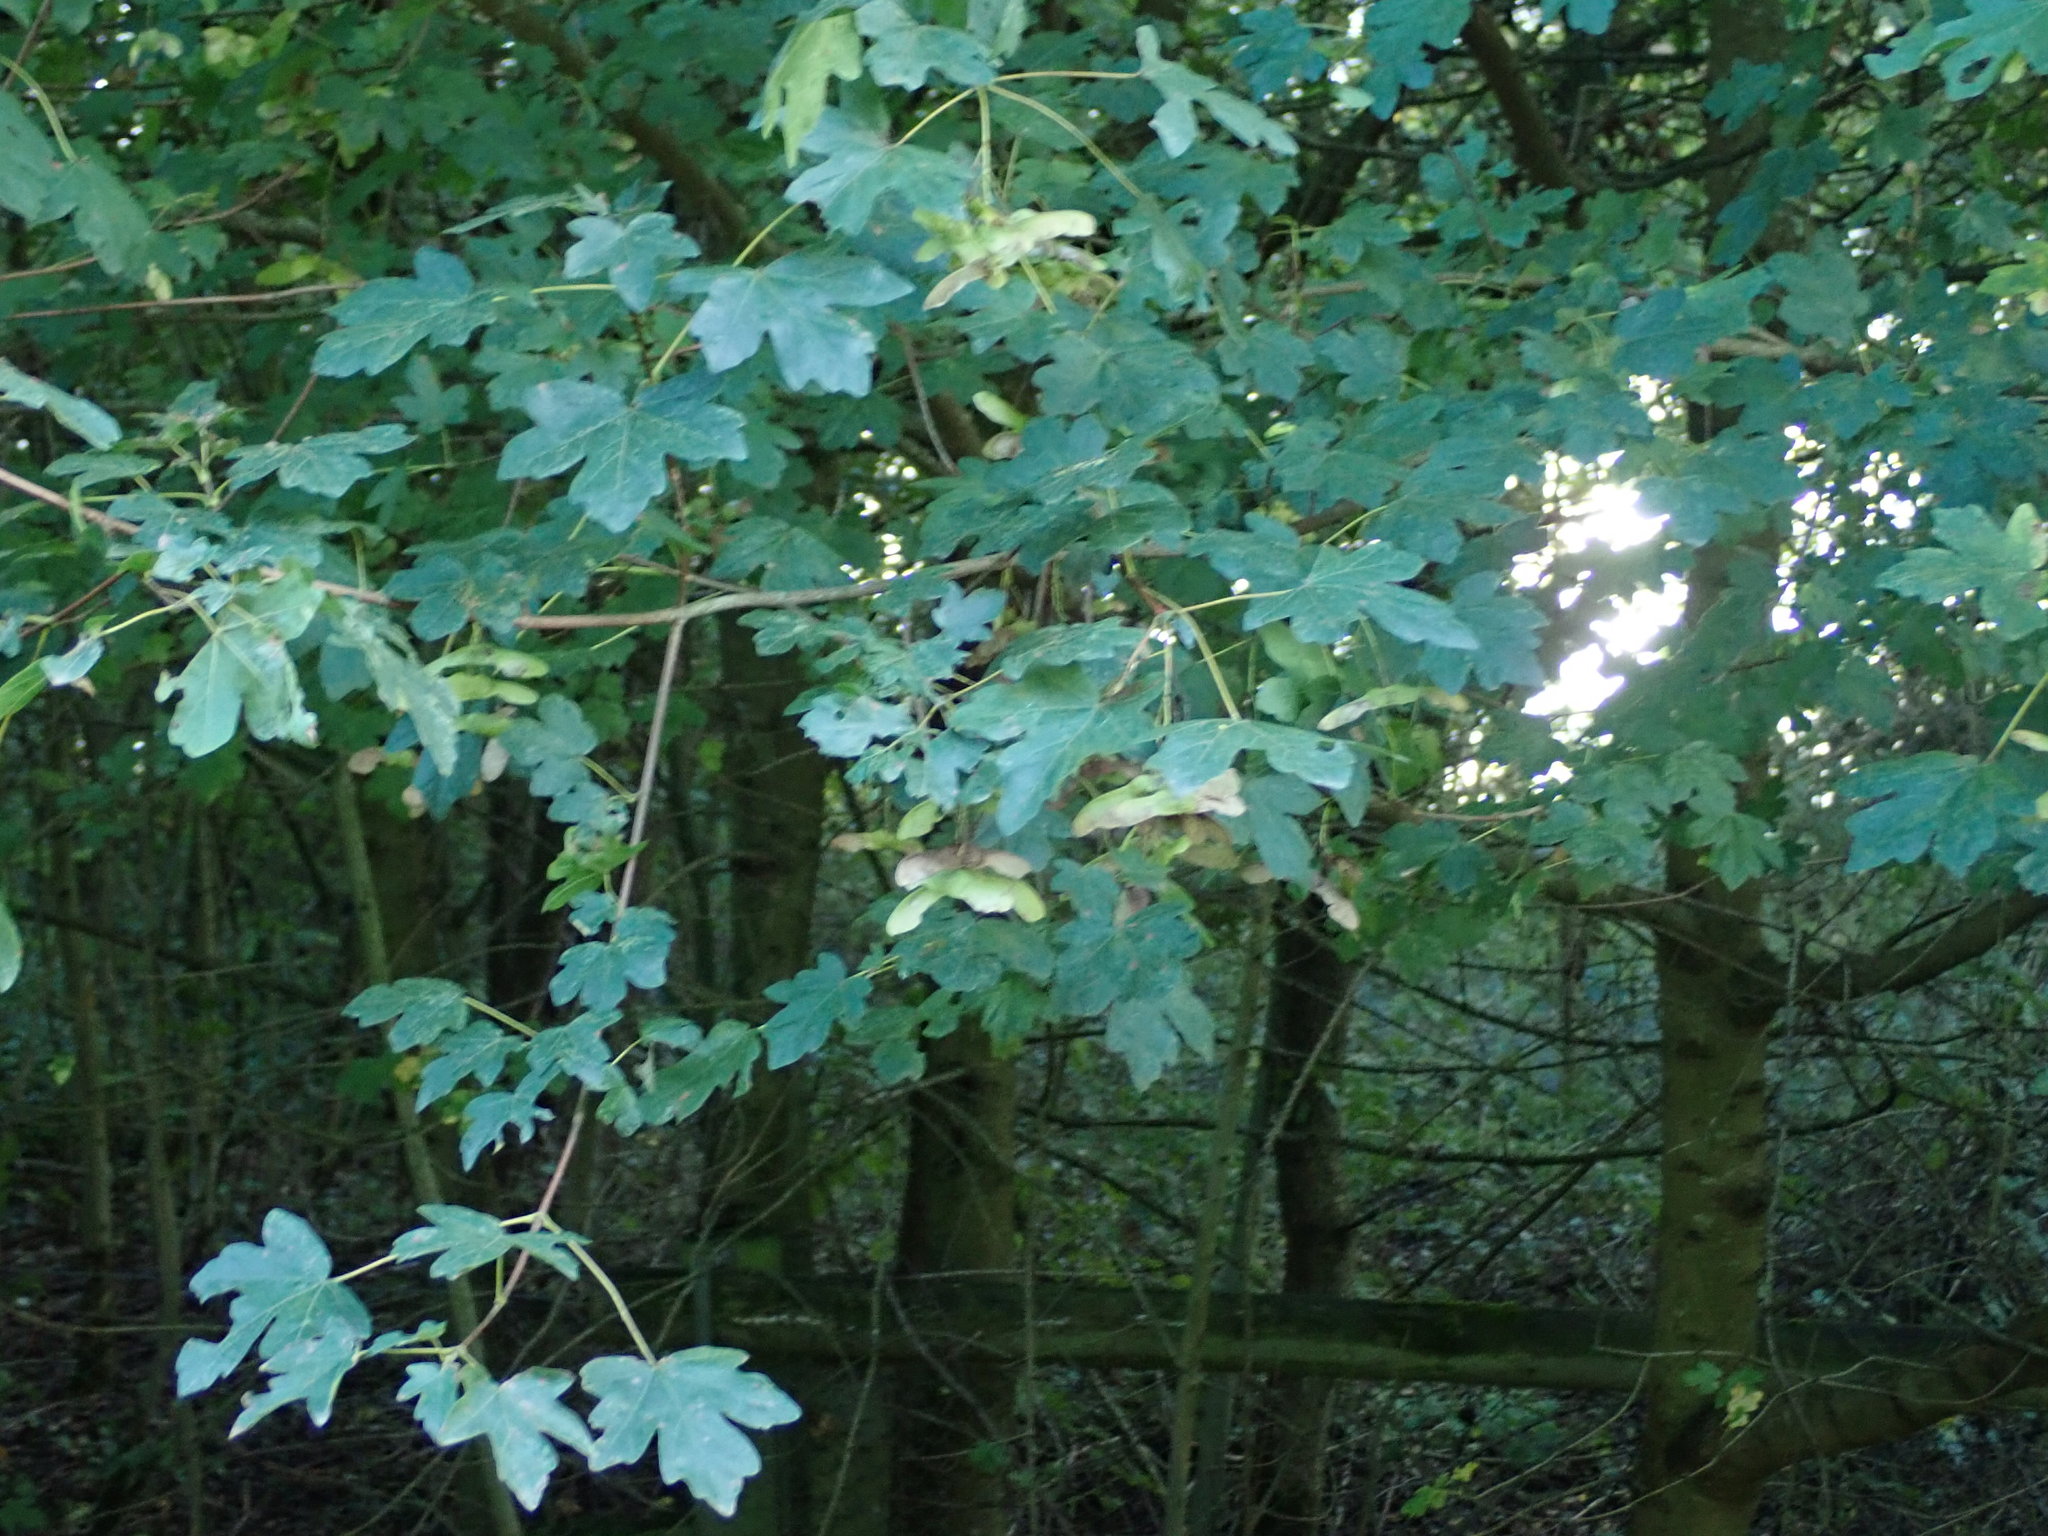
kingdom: Plantae
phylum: Tracheophyta
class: Magnoliopsida
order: Sapindales
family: Sapindaceae
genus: Acer
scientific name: Acer campestre
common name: Field maple
